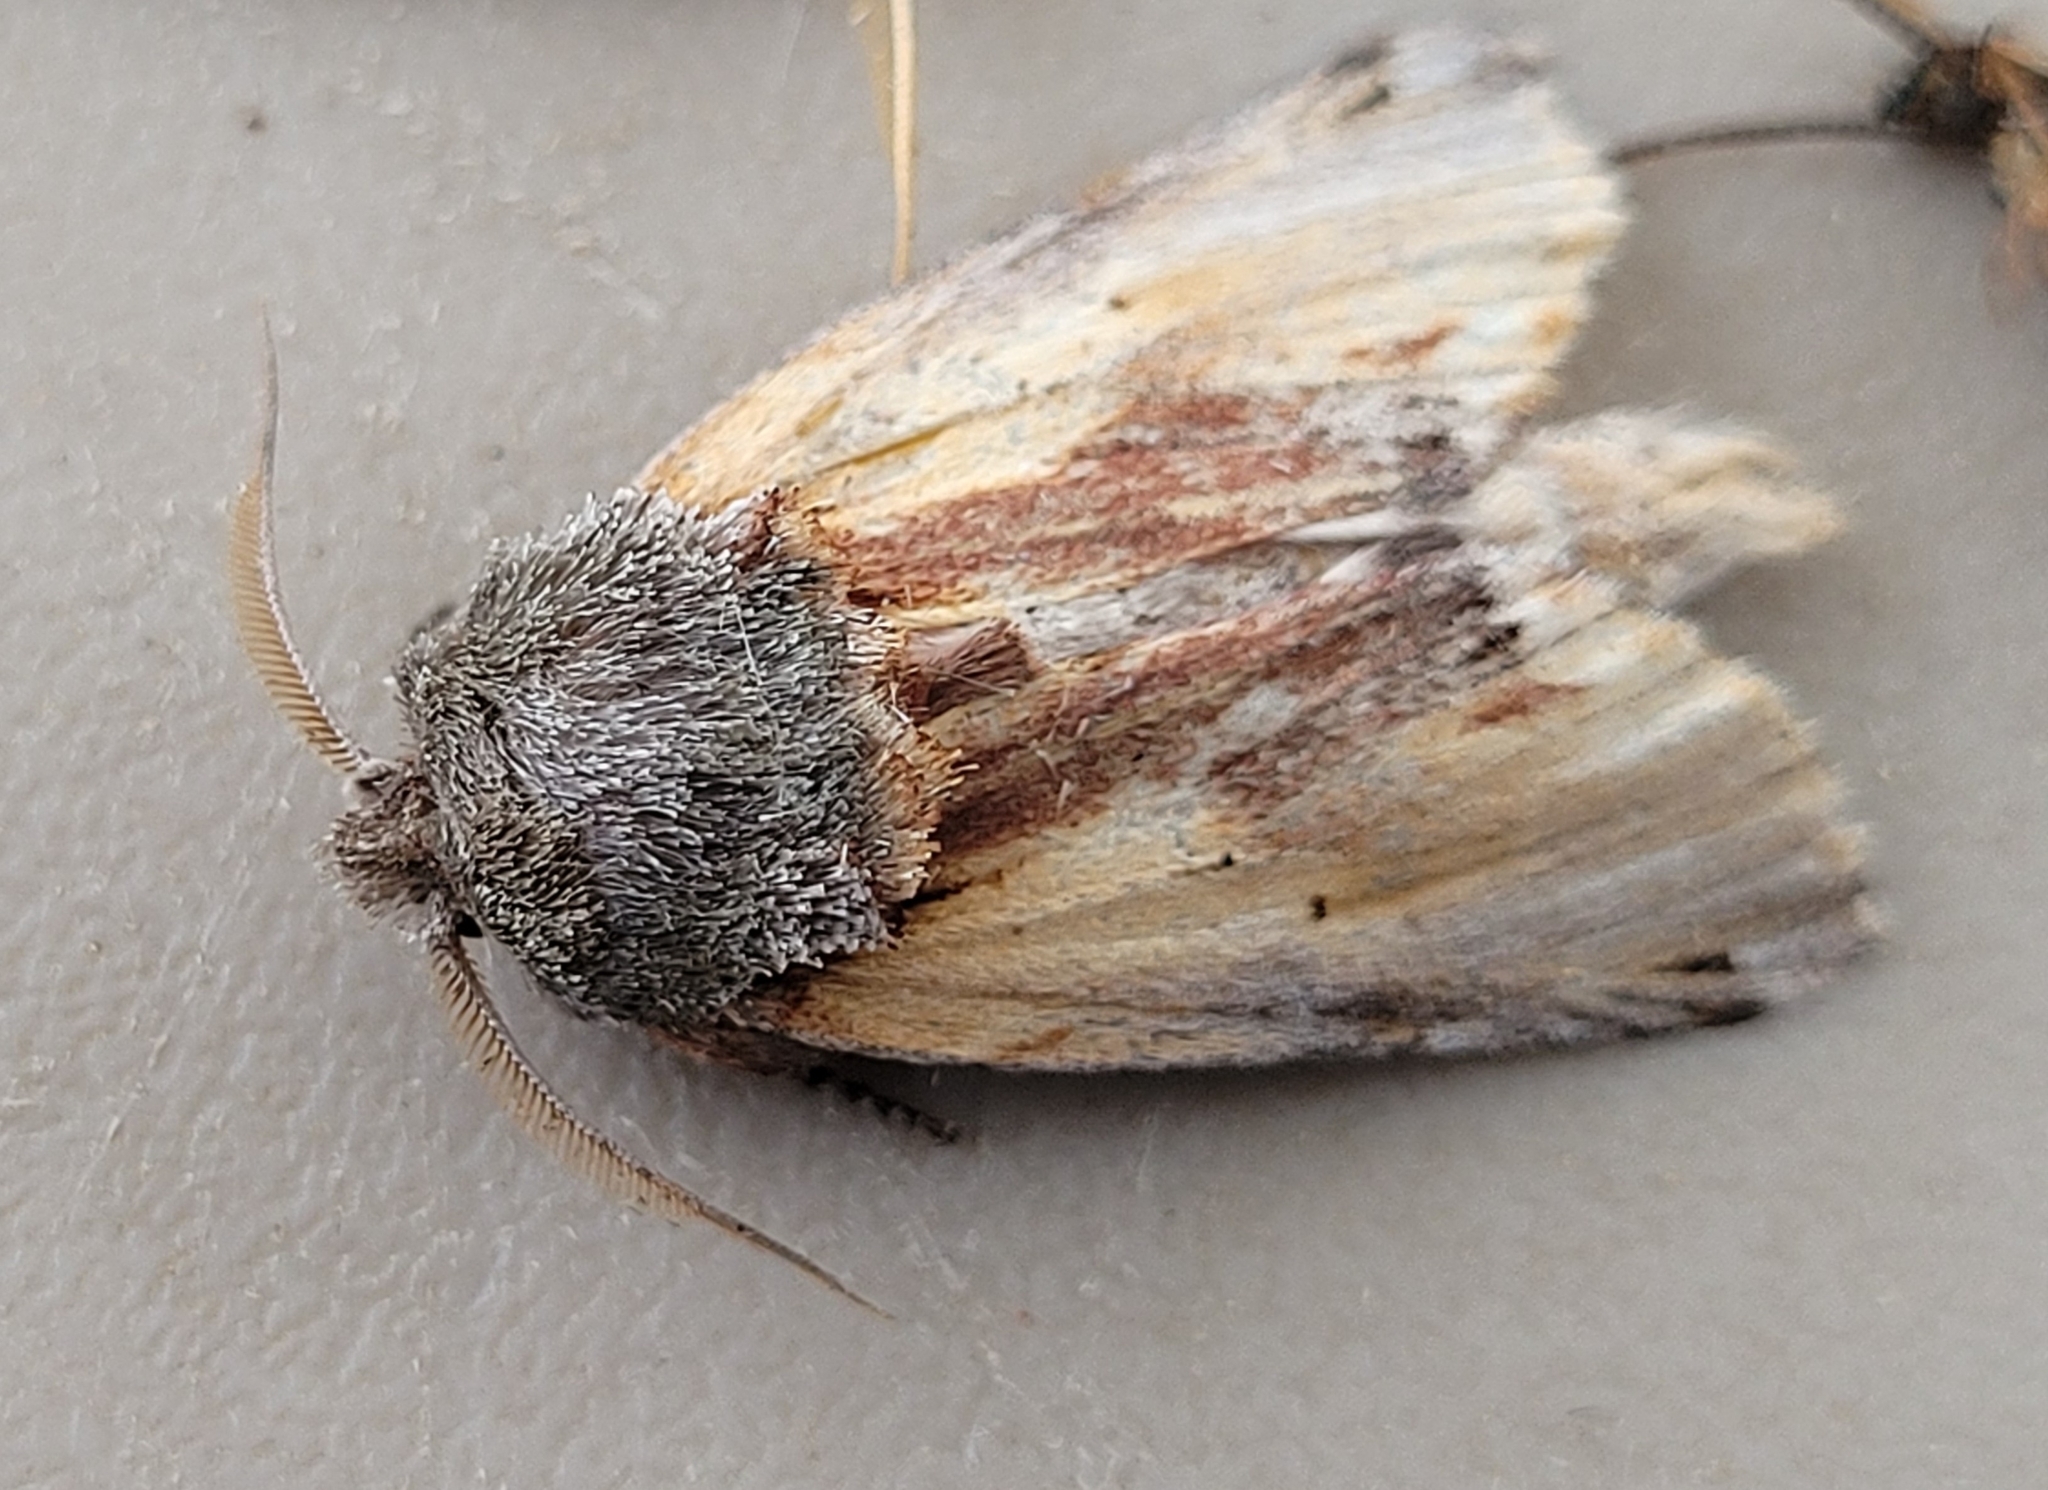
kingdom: Animalia
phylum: Arthropoda
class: Insecta
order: Lepidoptera
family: Notodontidae
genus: Schizura
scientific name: Schizura
